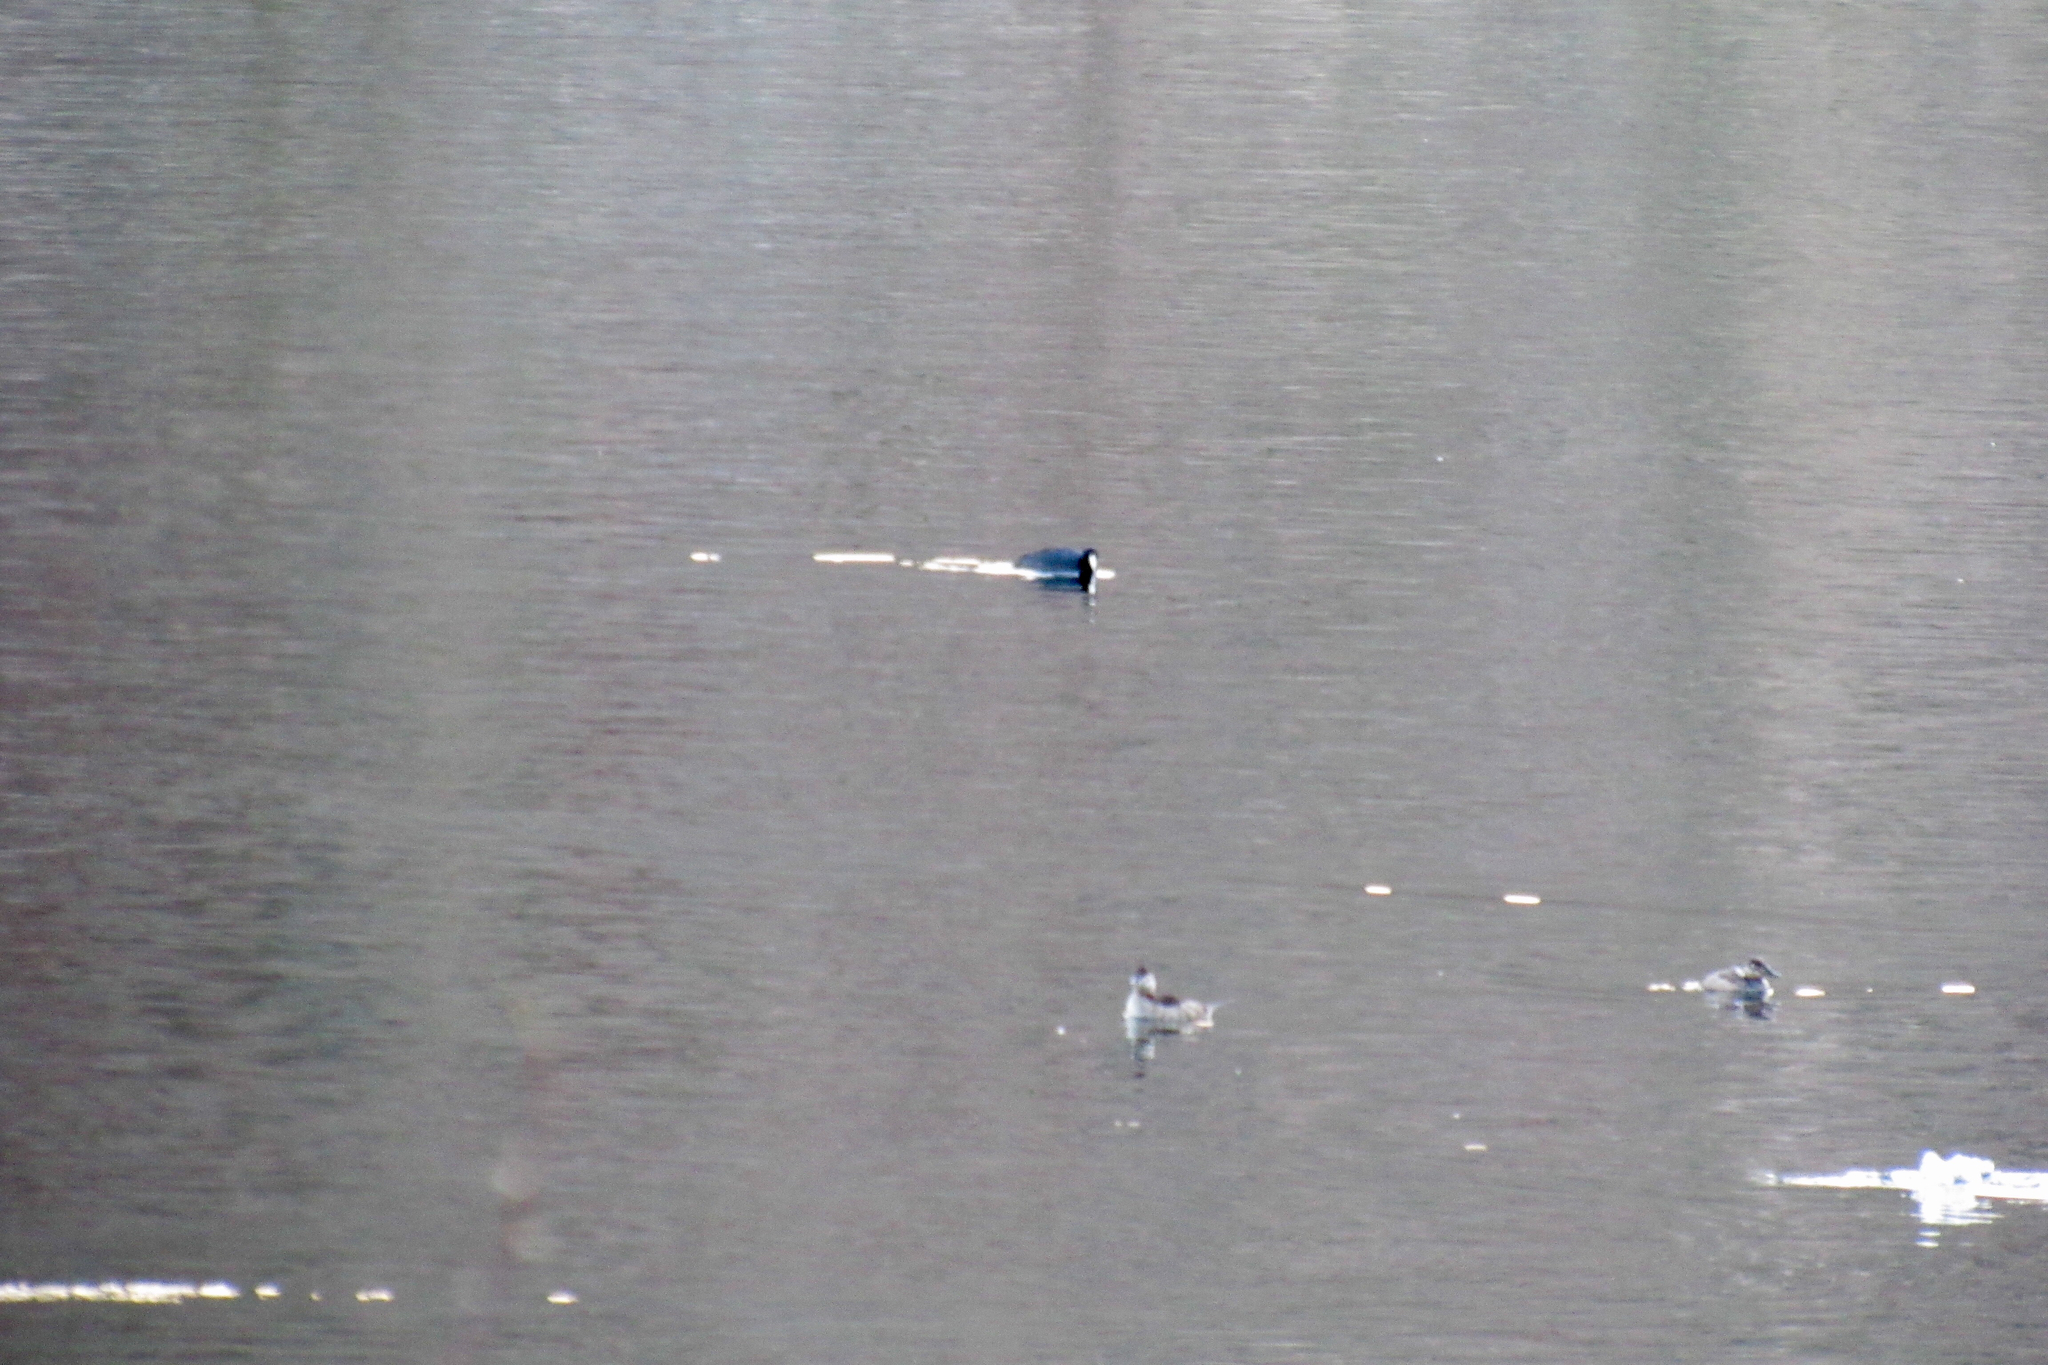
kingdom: Animalia
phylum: Chordata
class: Aves
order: Gruiformes
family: Rallidae
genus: Fulica
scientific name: Fulica americana
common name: American coot
